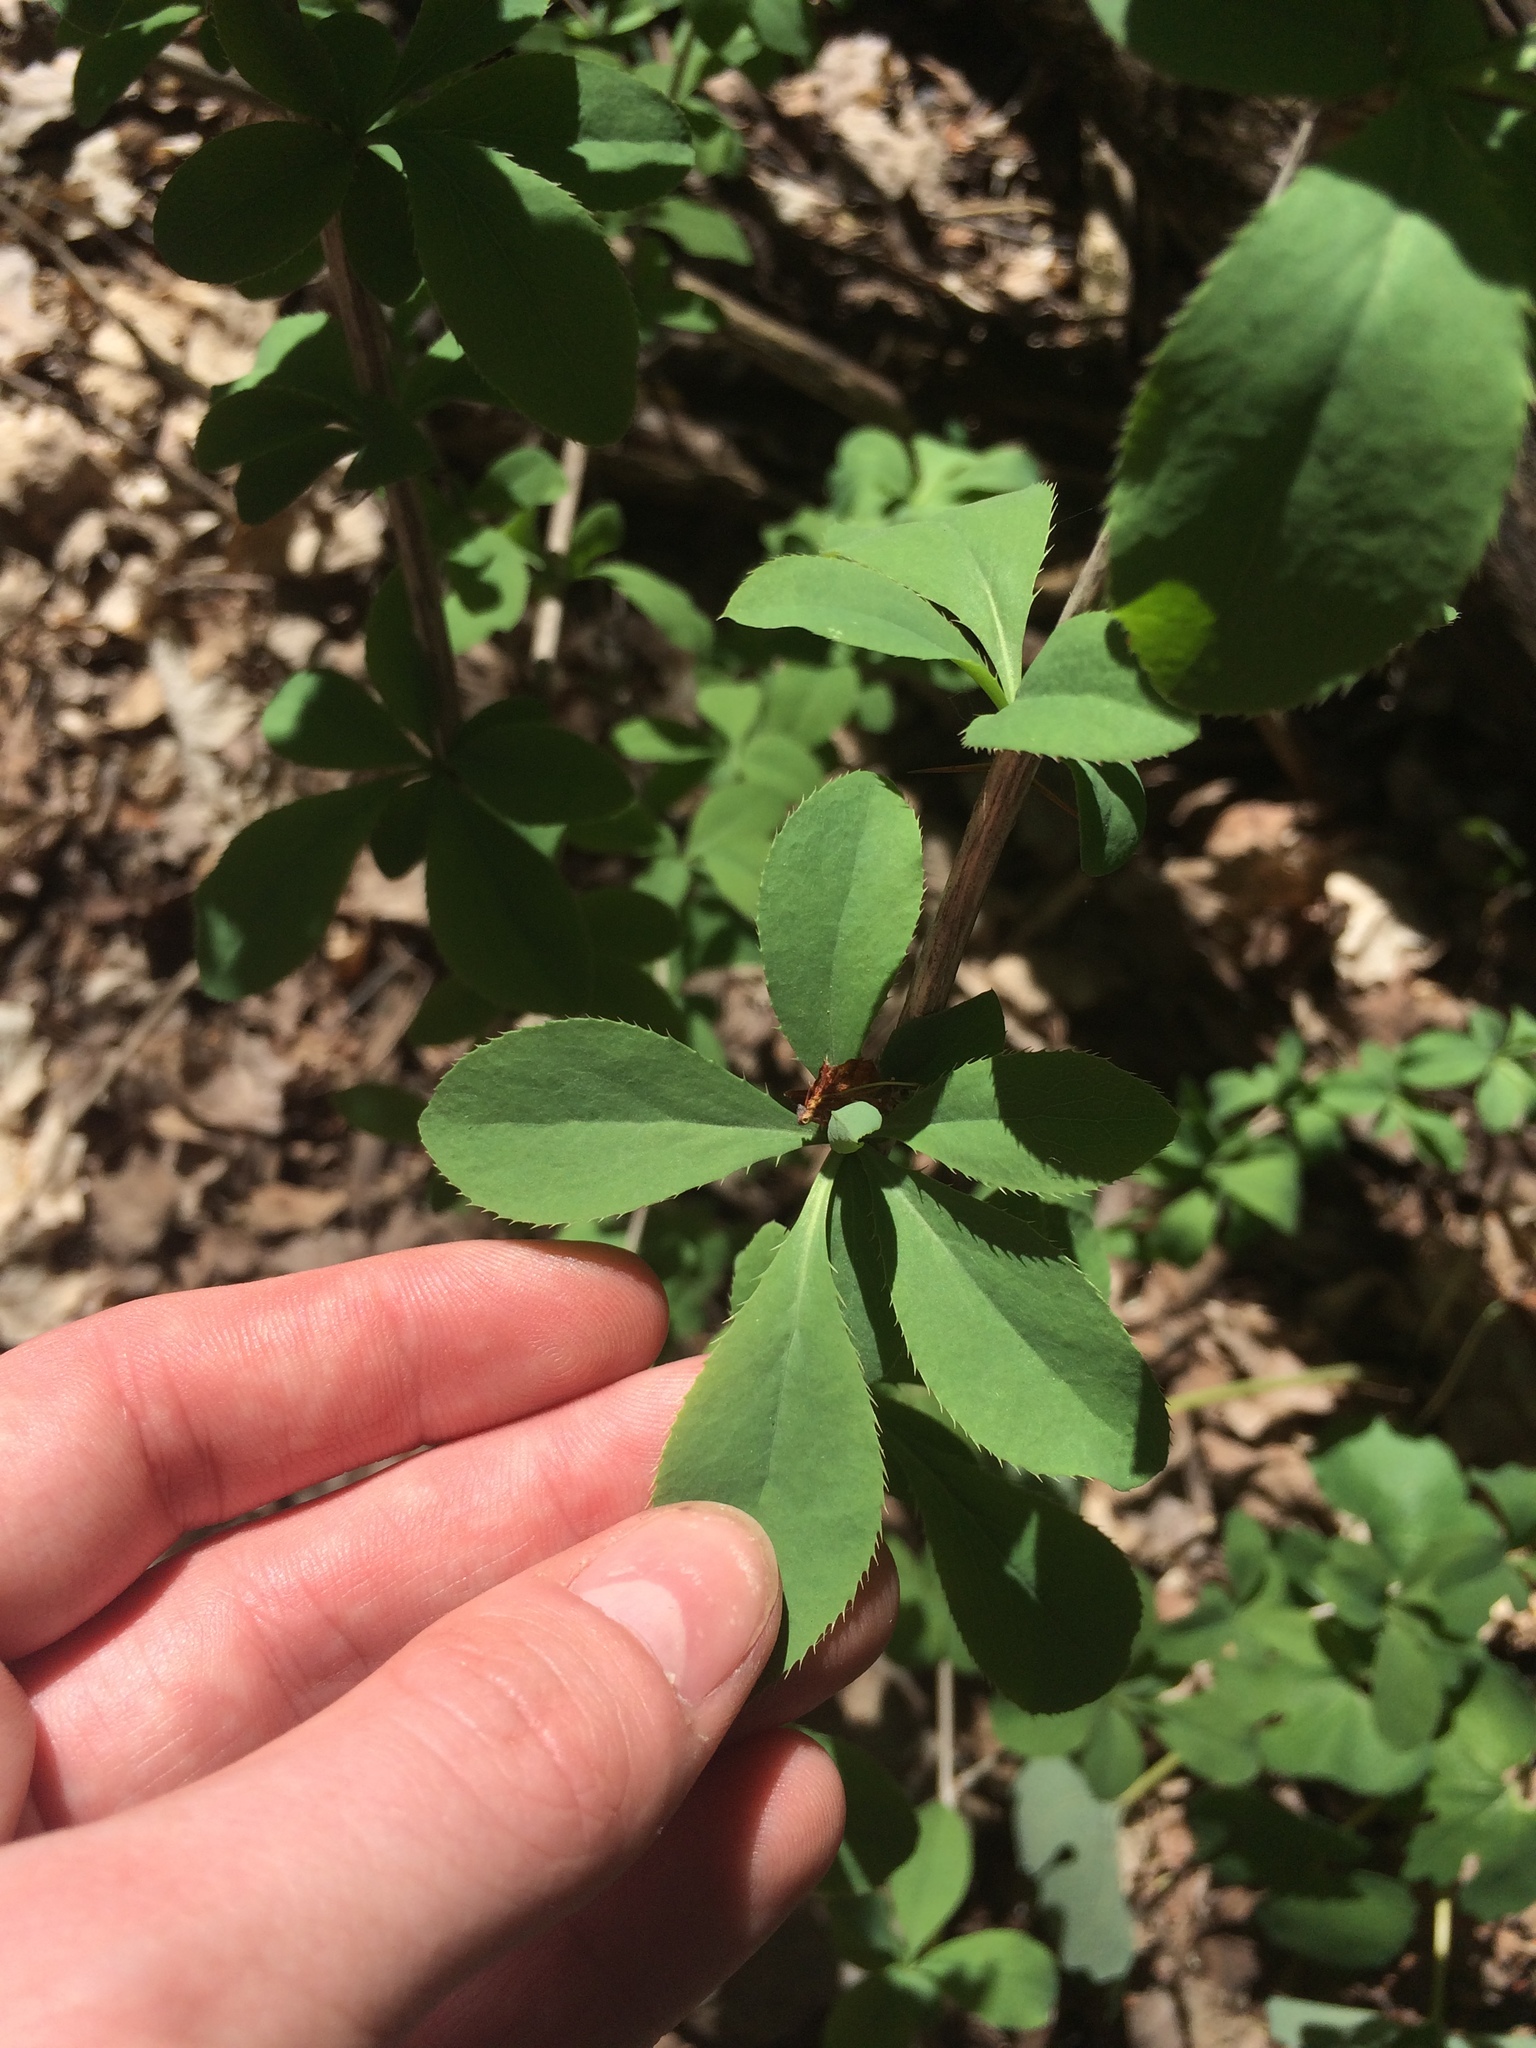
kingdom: Plantae
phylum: Tracheophyta
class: Magnoliopsida
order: Ranunculales
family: Berberidaceae
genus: Berberis
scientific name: Berberis vulgaris
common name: Barberry
